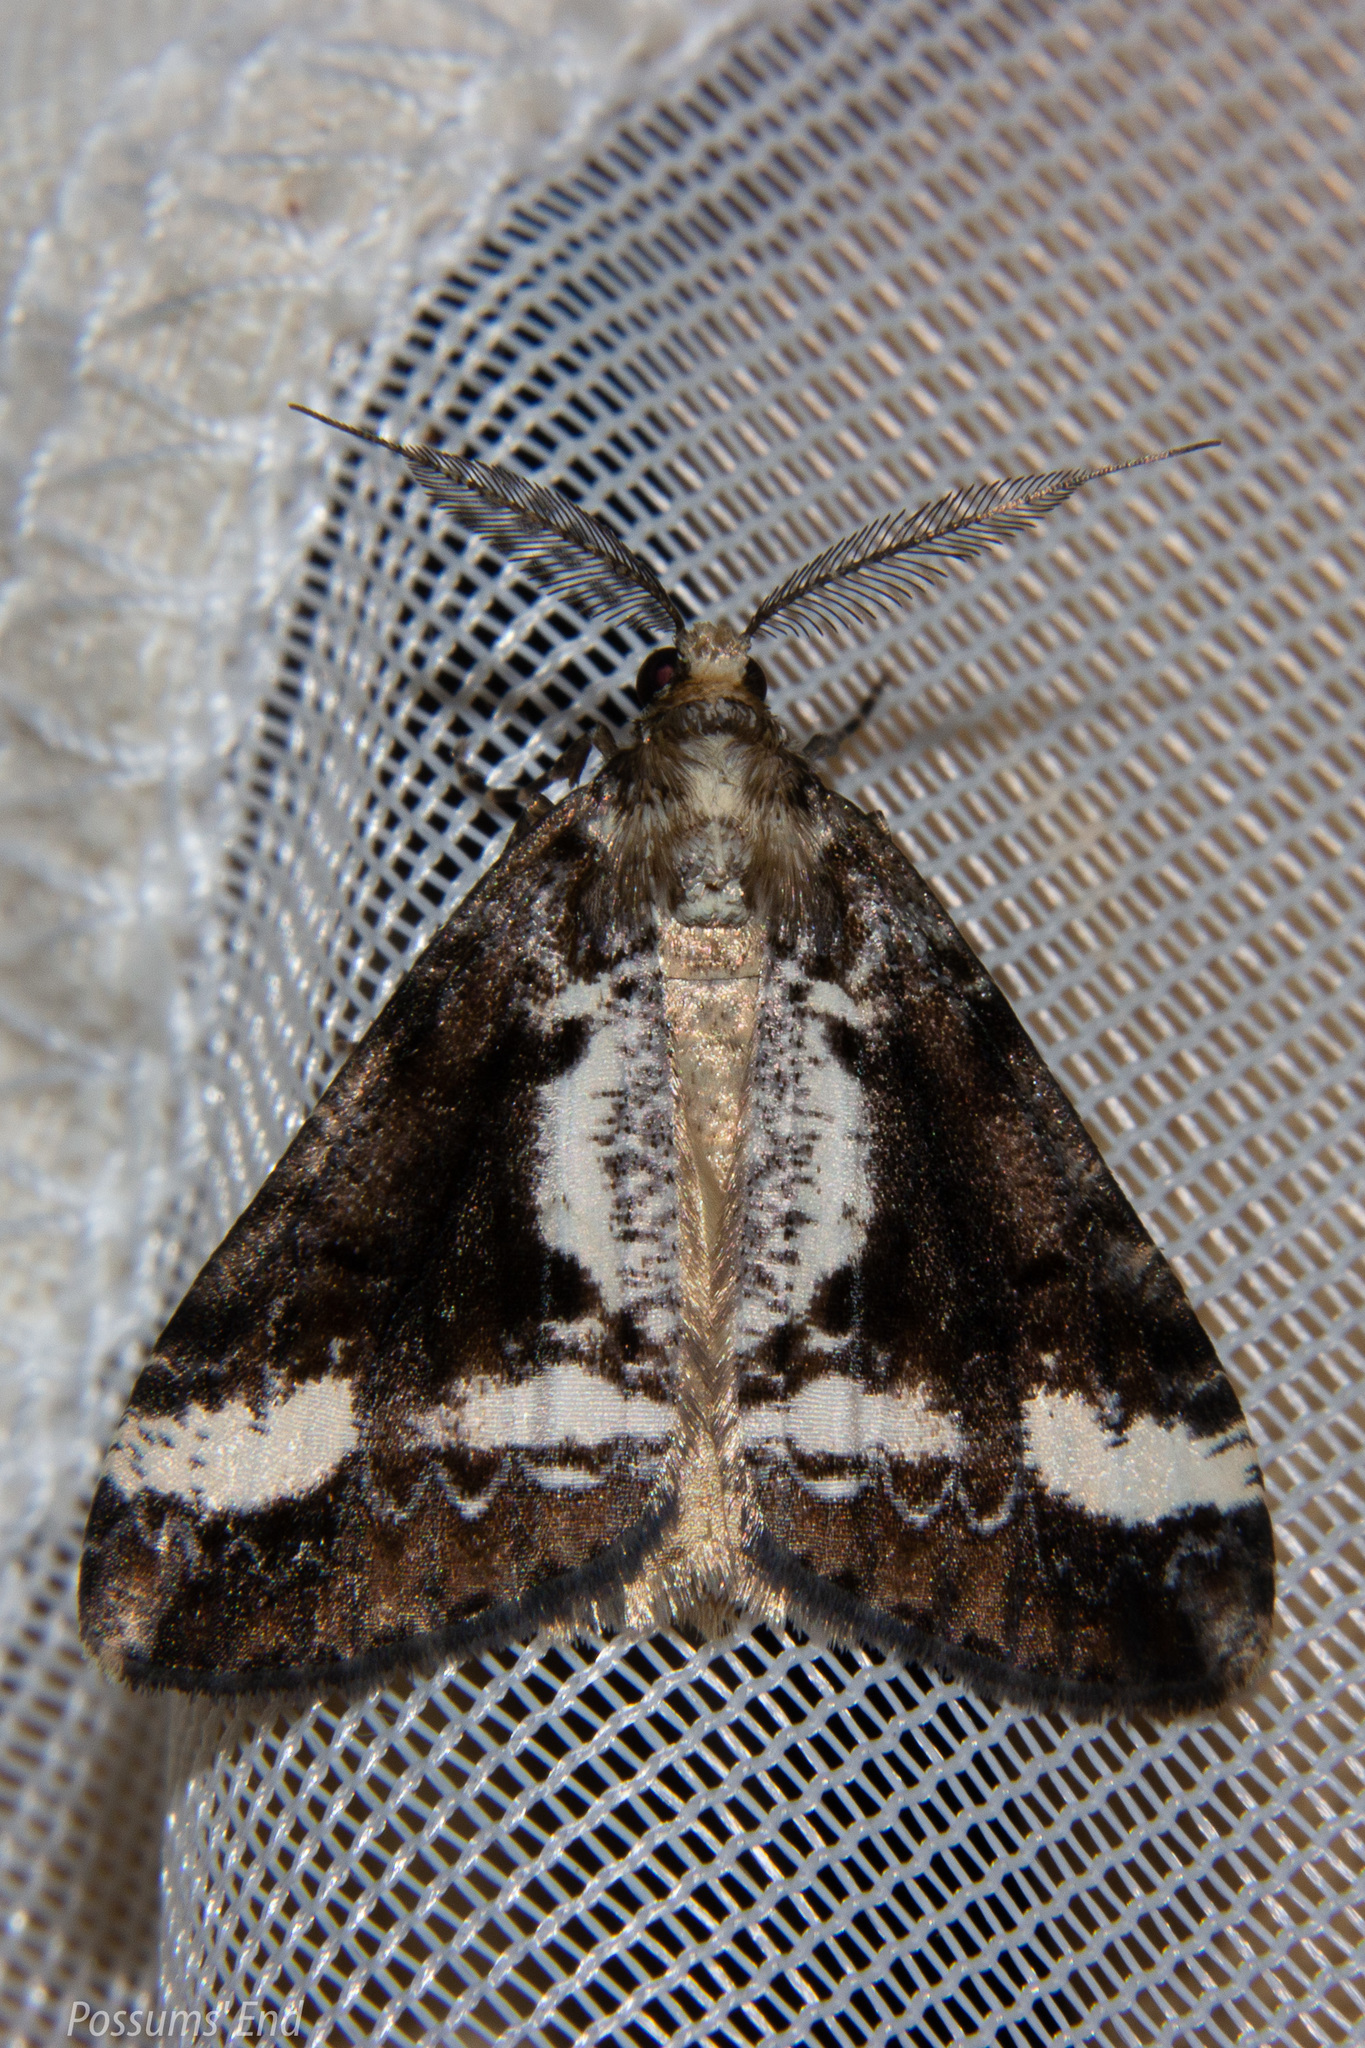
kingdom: Animalia
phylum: Arthropoda
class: Insecta
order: Lepidoptera
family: Geometridae
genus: Pseudocoremia
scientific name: Pseudocoremia leucelaea
